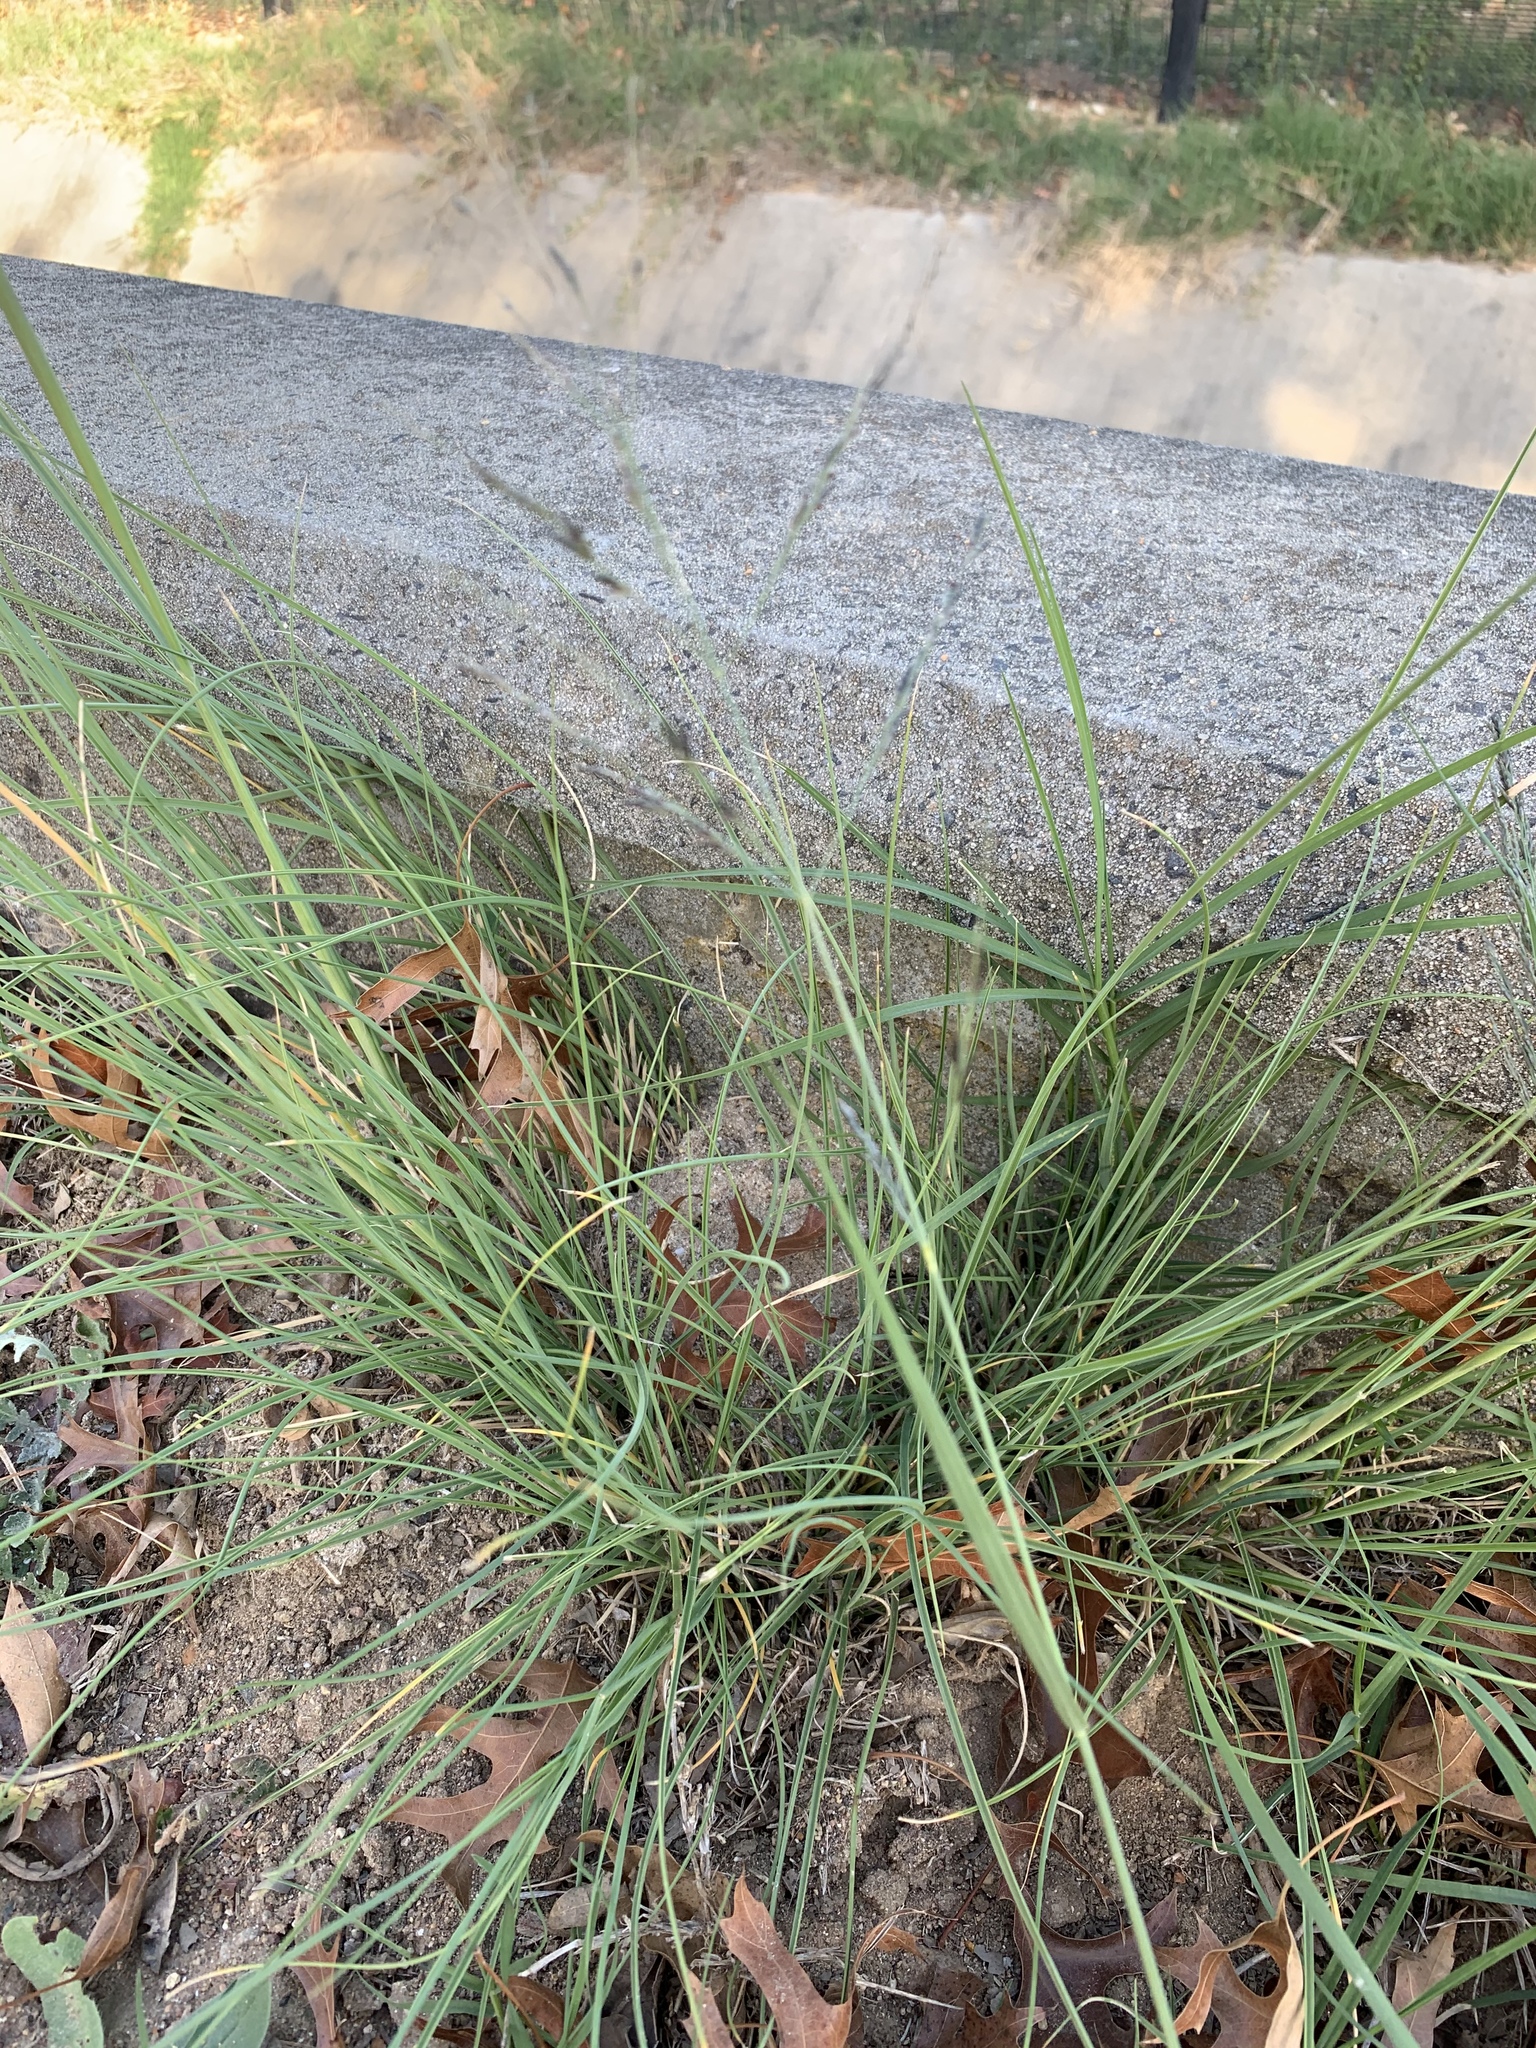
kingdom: Plantae
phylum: Tracheophyta
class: Liliopsida
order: Poales
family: Poaceae
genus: Cenchrus
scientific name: Cenchrus setaceus
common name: Crimson fountaingrass
